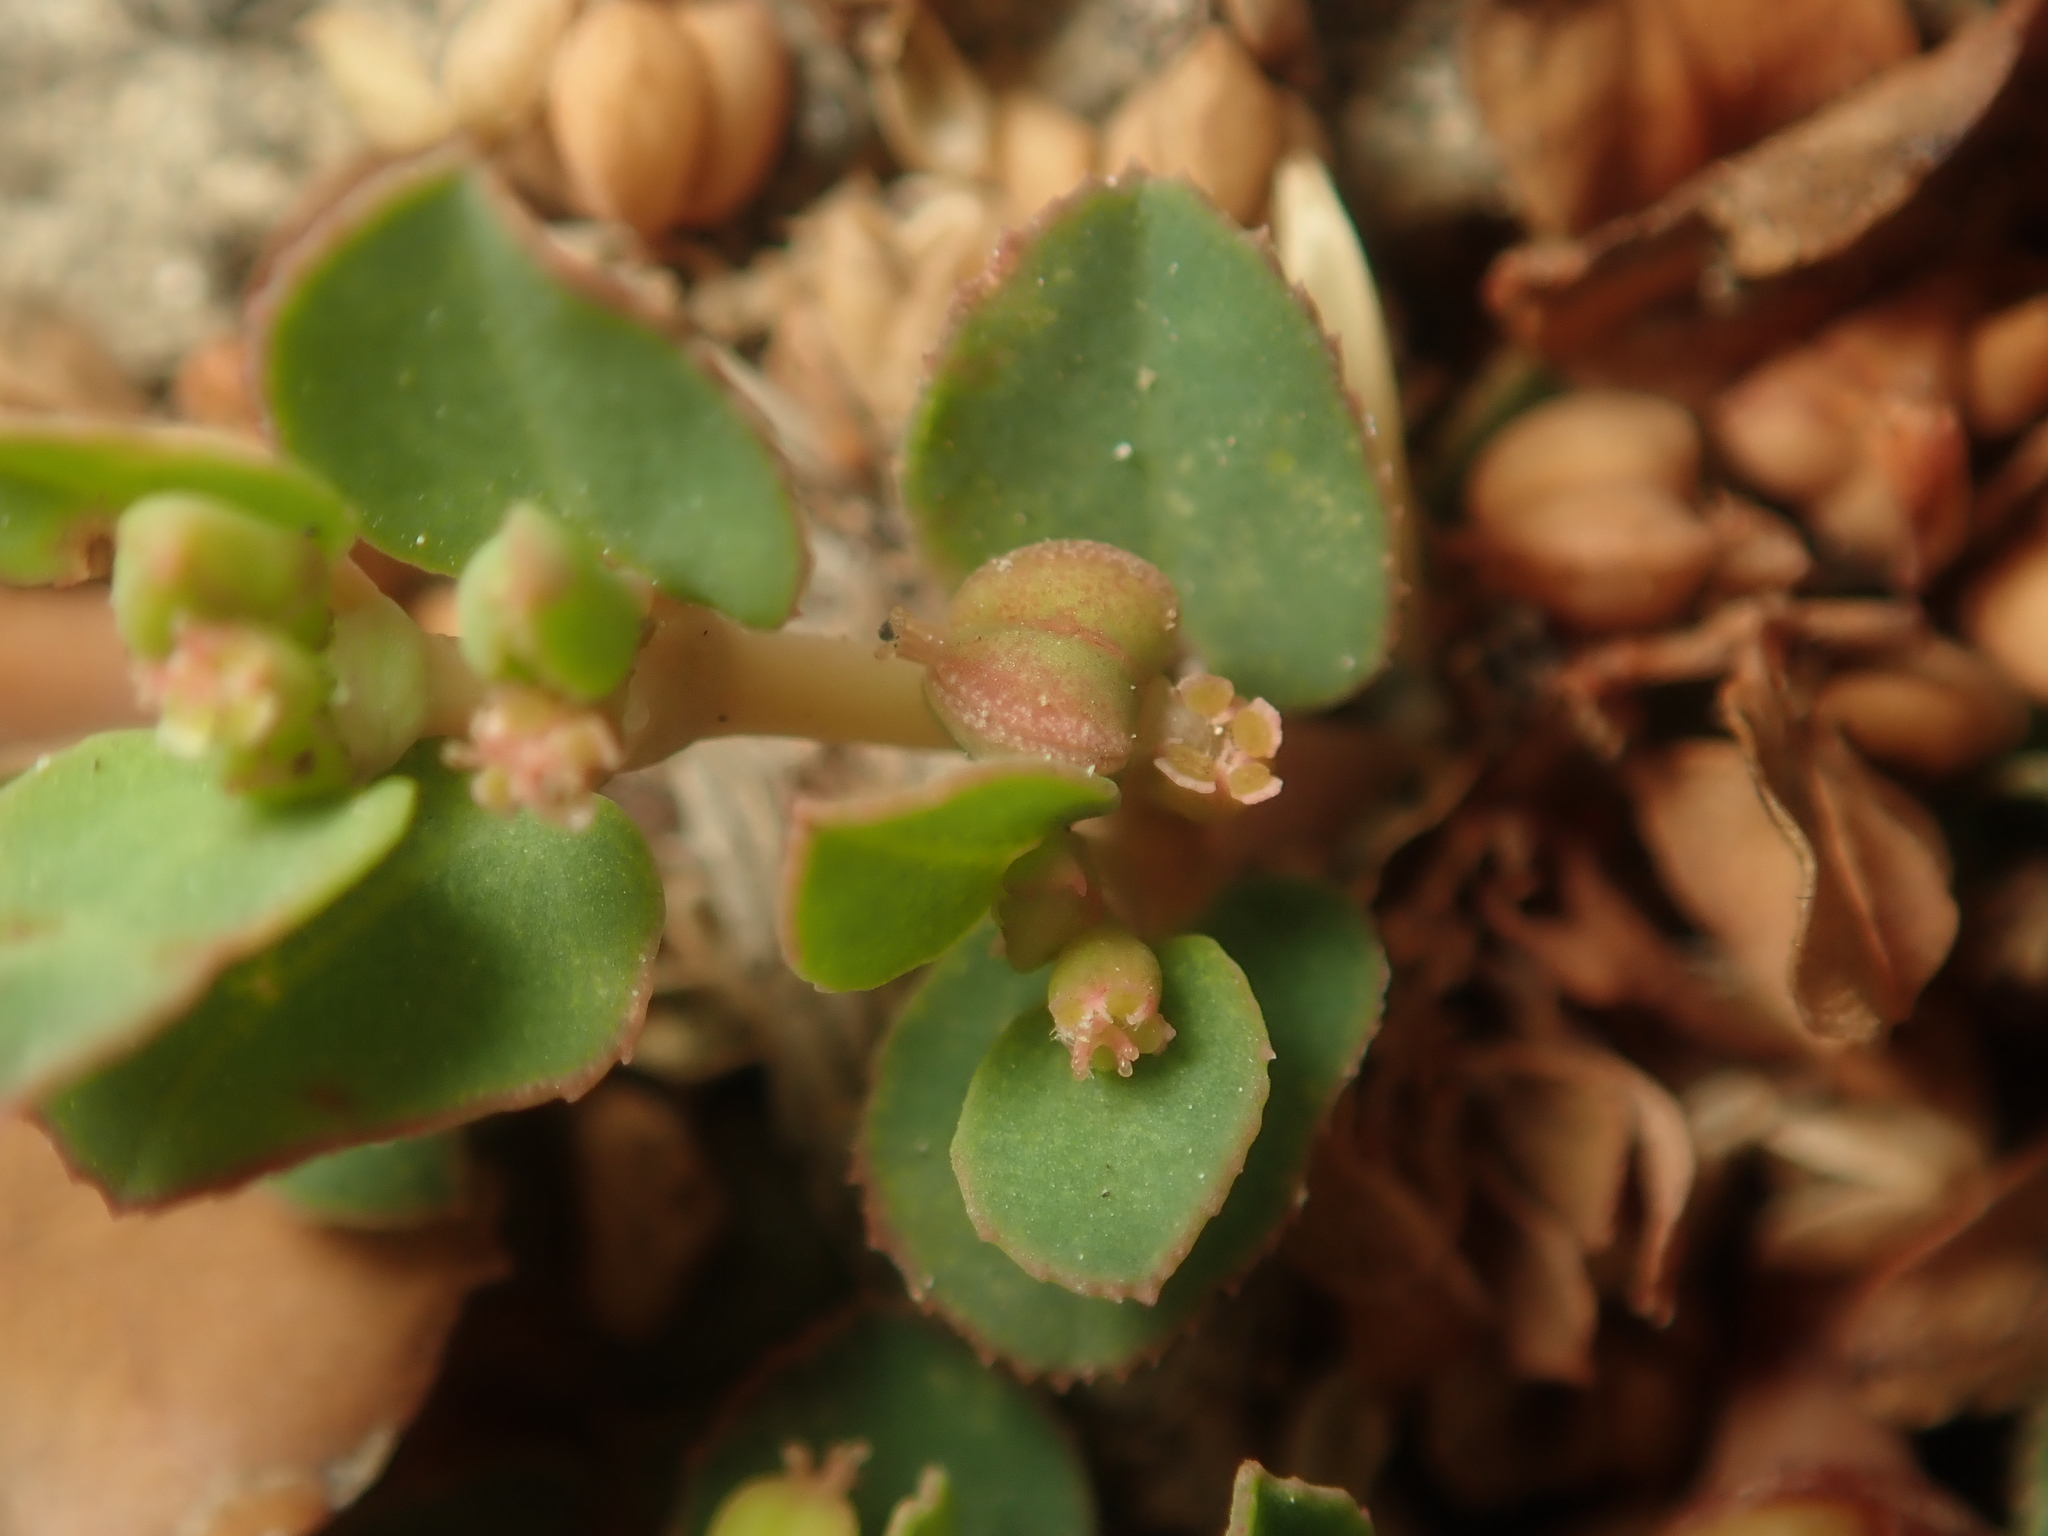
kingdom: Plantae
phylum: Tracheophyta
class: Magnoliopsida
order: Malpighiales
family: Euphorbiaceae
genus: Euphorbia
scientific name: Euphorbia blodgettii
